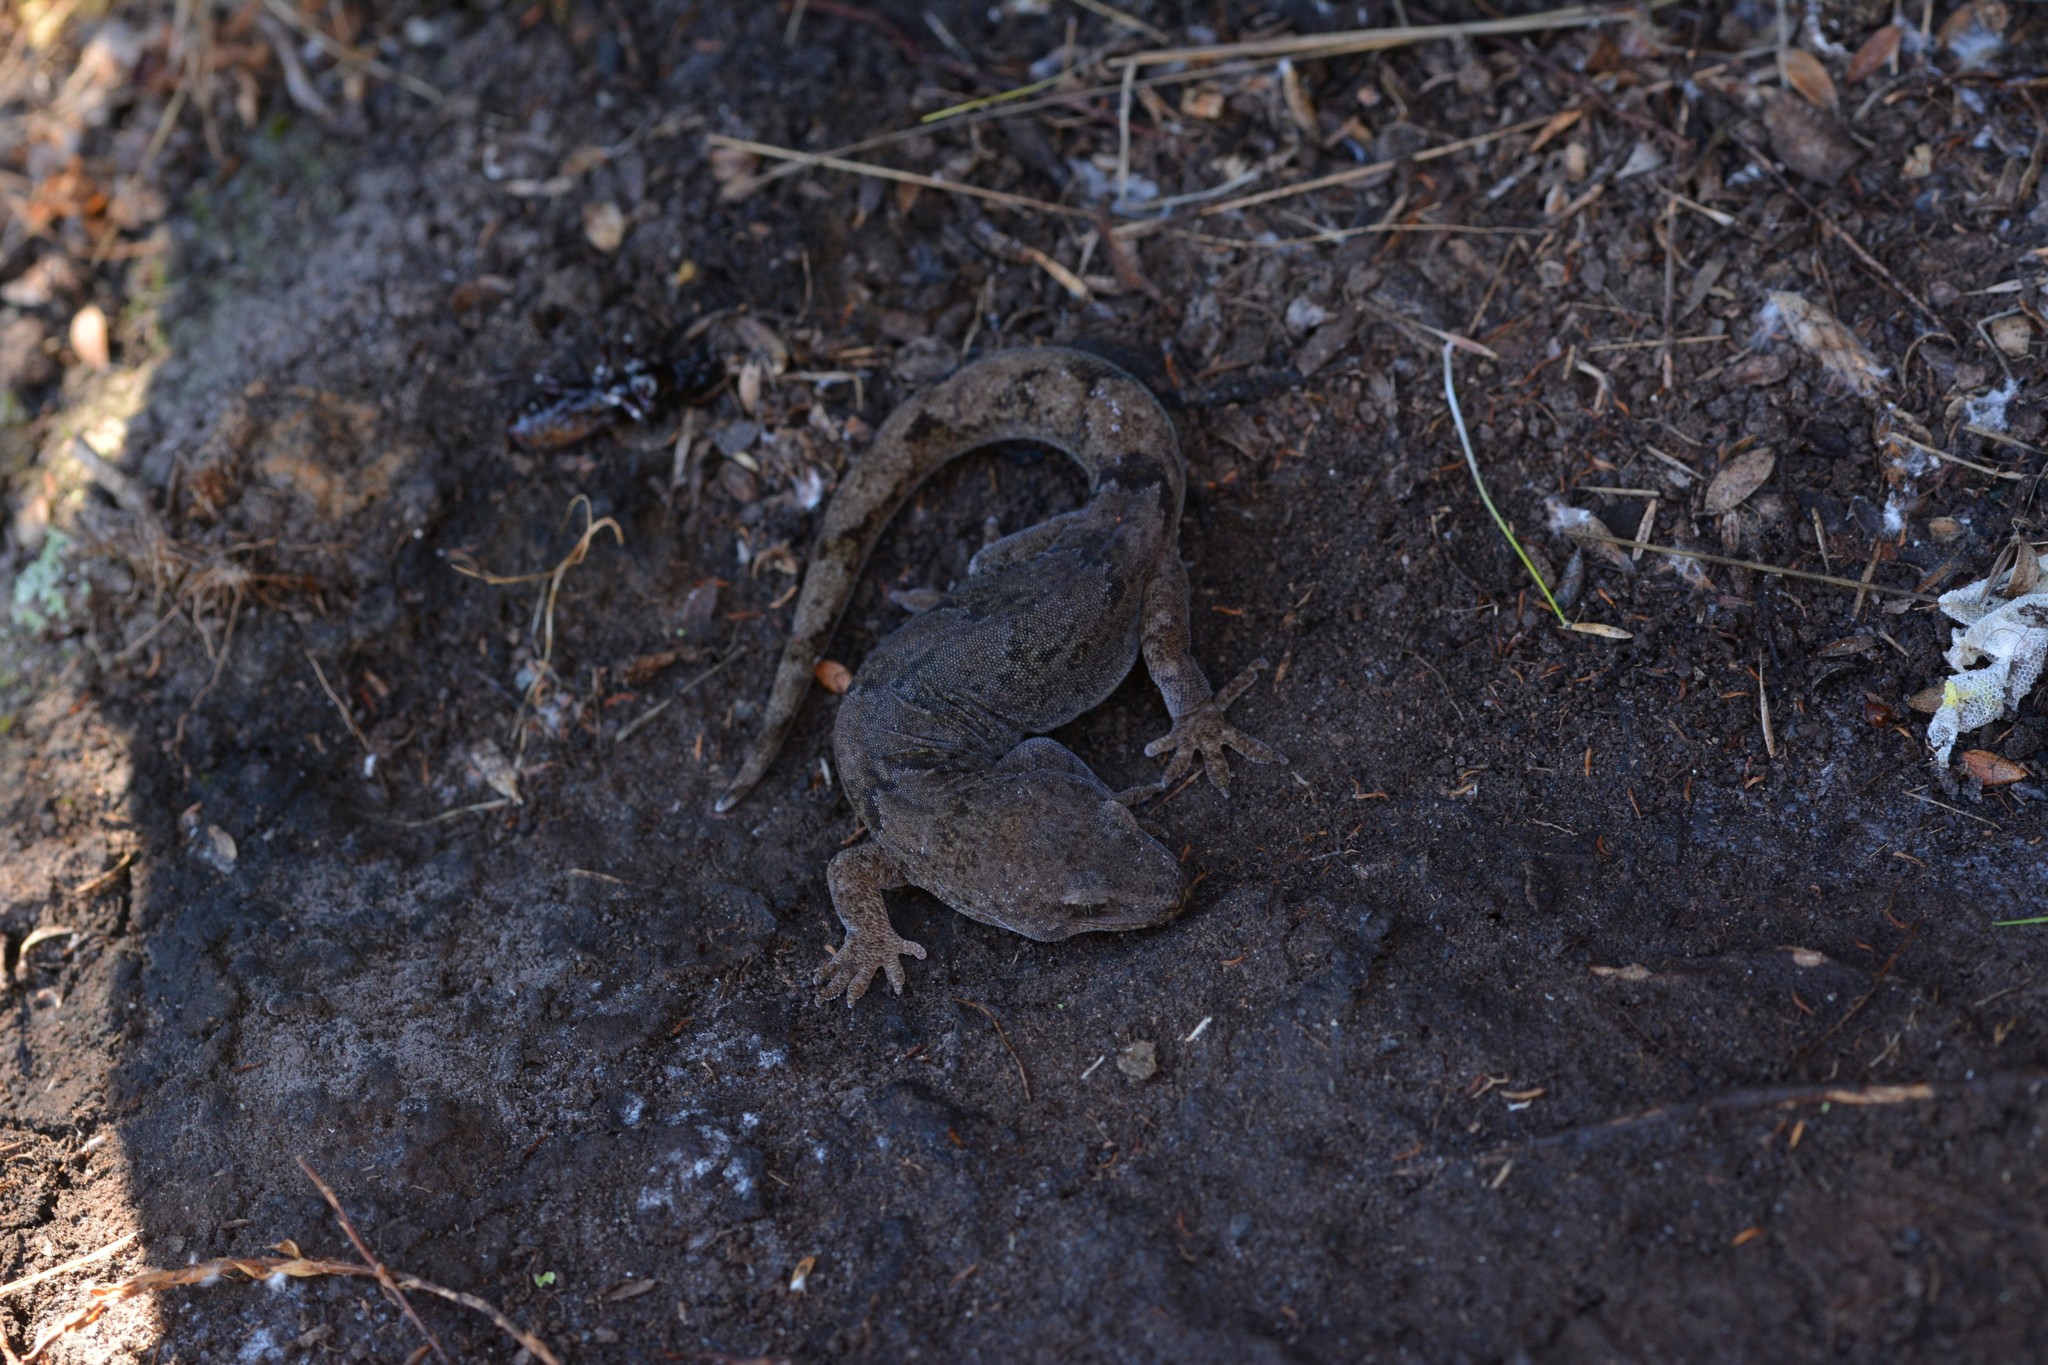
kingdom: Animalia
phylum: Chordata
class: Squamata
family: Diplodactylidae
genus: Woodworthia
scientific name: Woodworthia
